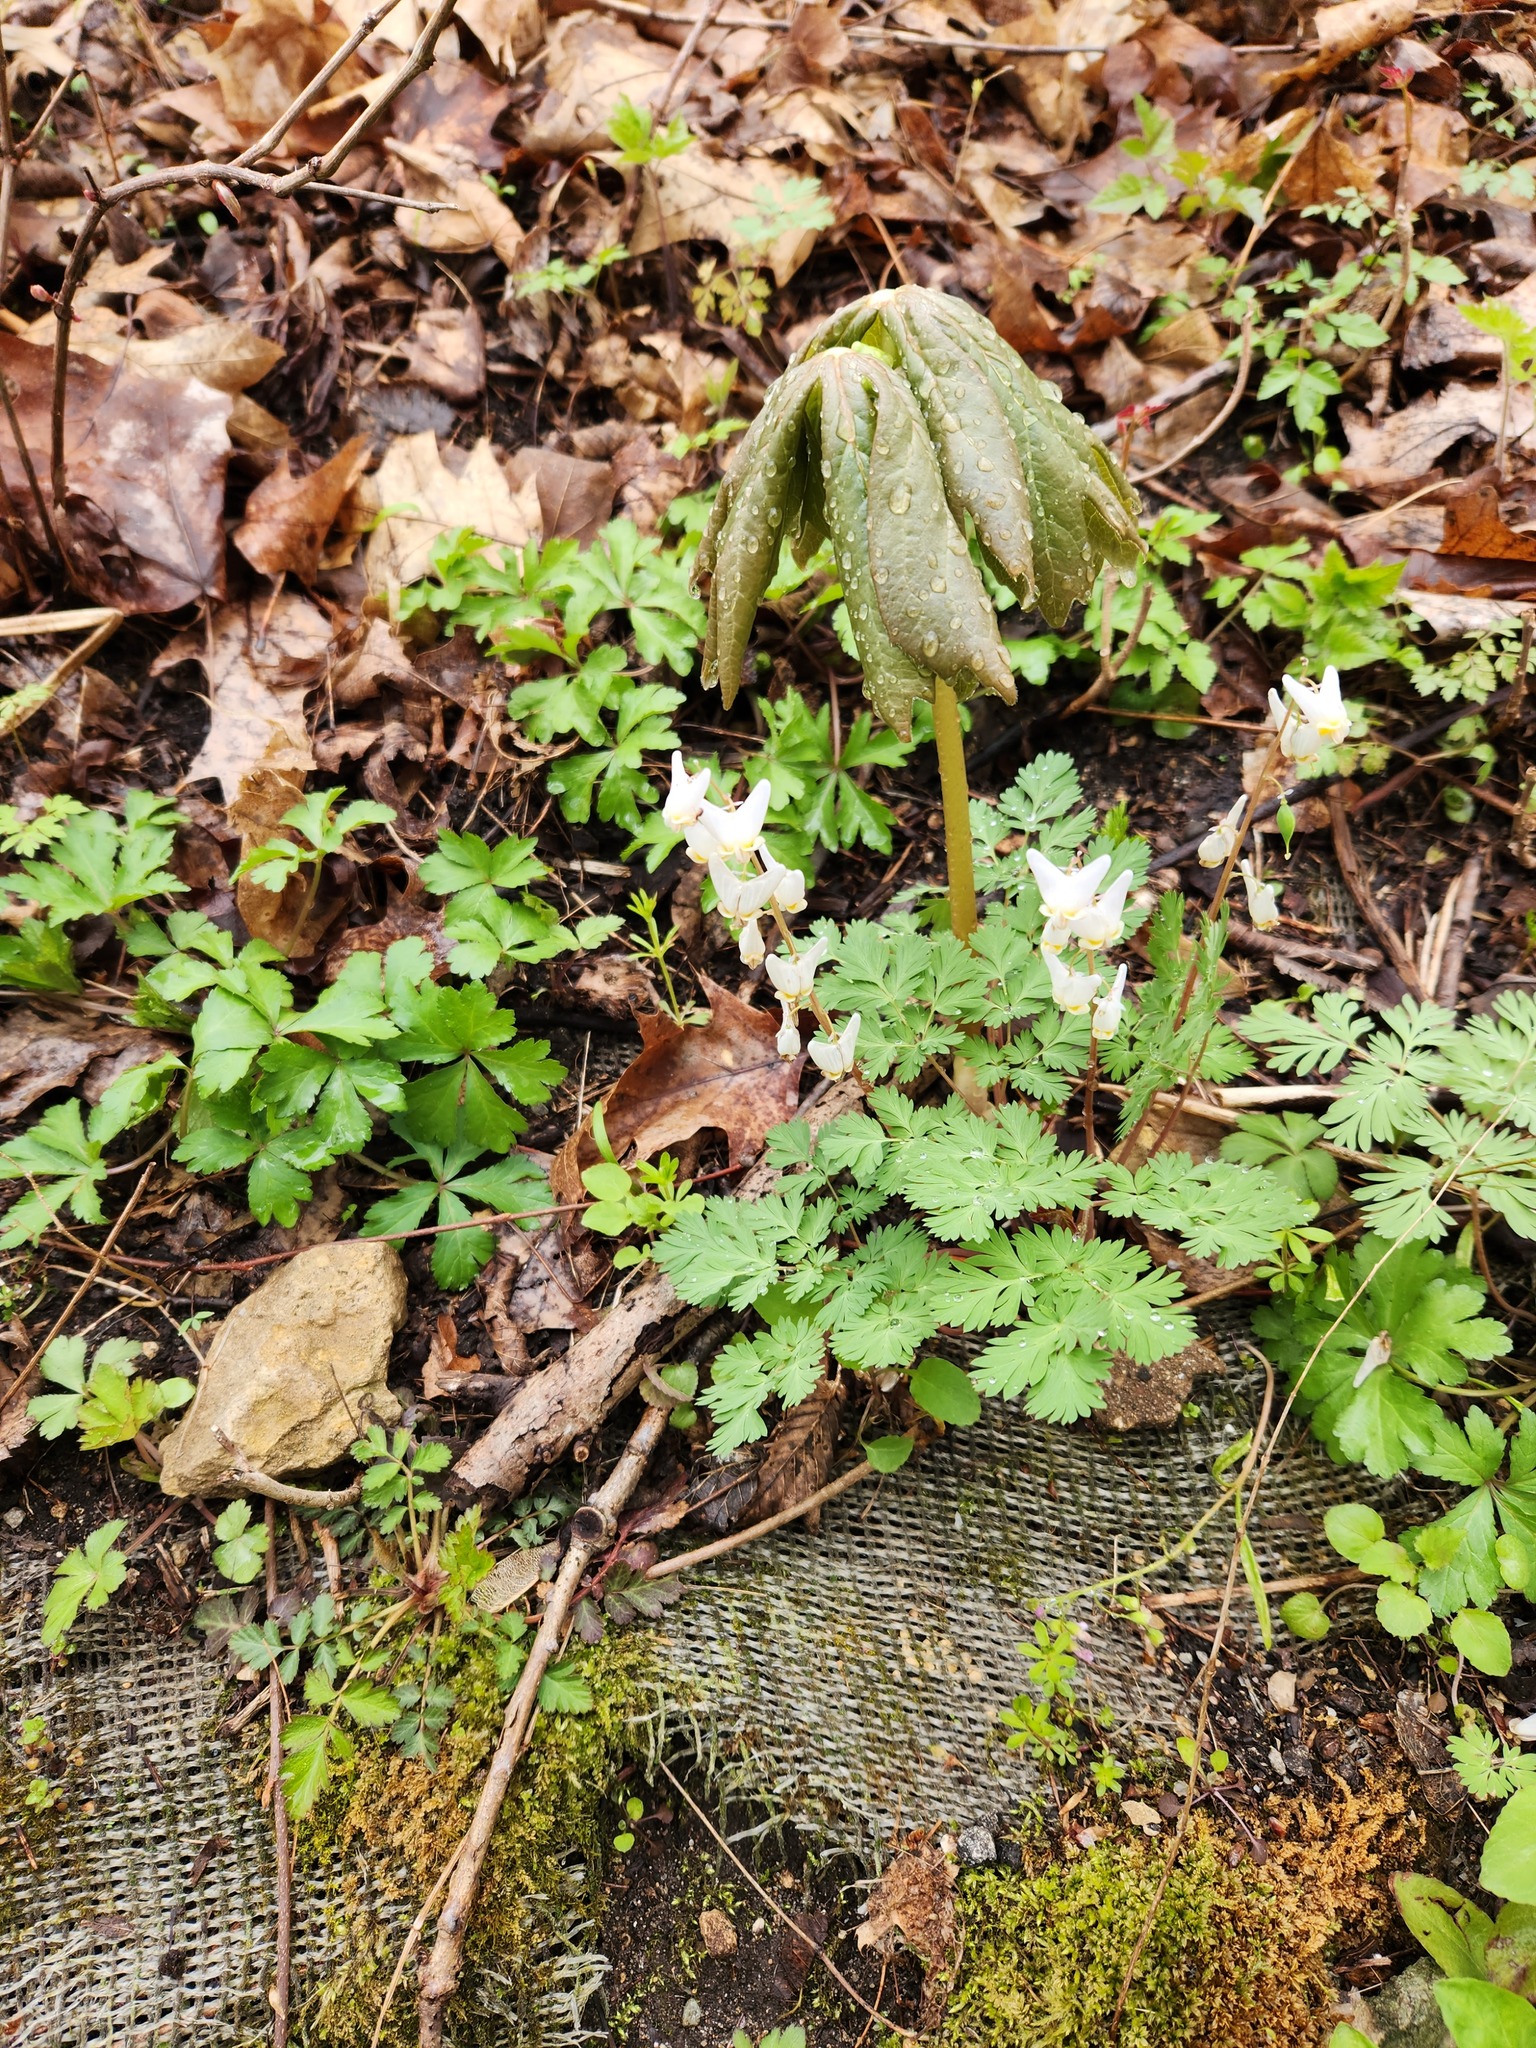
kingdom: Plantae
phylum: Tracheophyta
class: Magnoliopsida
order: Ranunculales
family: Papaveraceae
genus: Dicentra
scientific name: Dicentra cucullaria
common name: Dutchman's breeches
